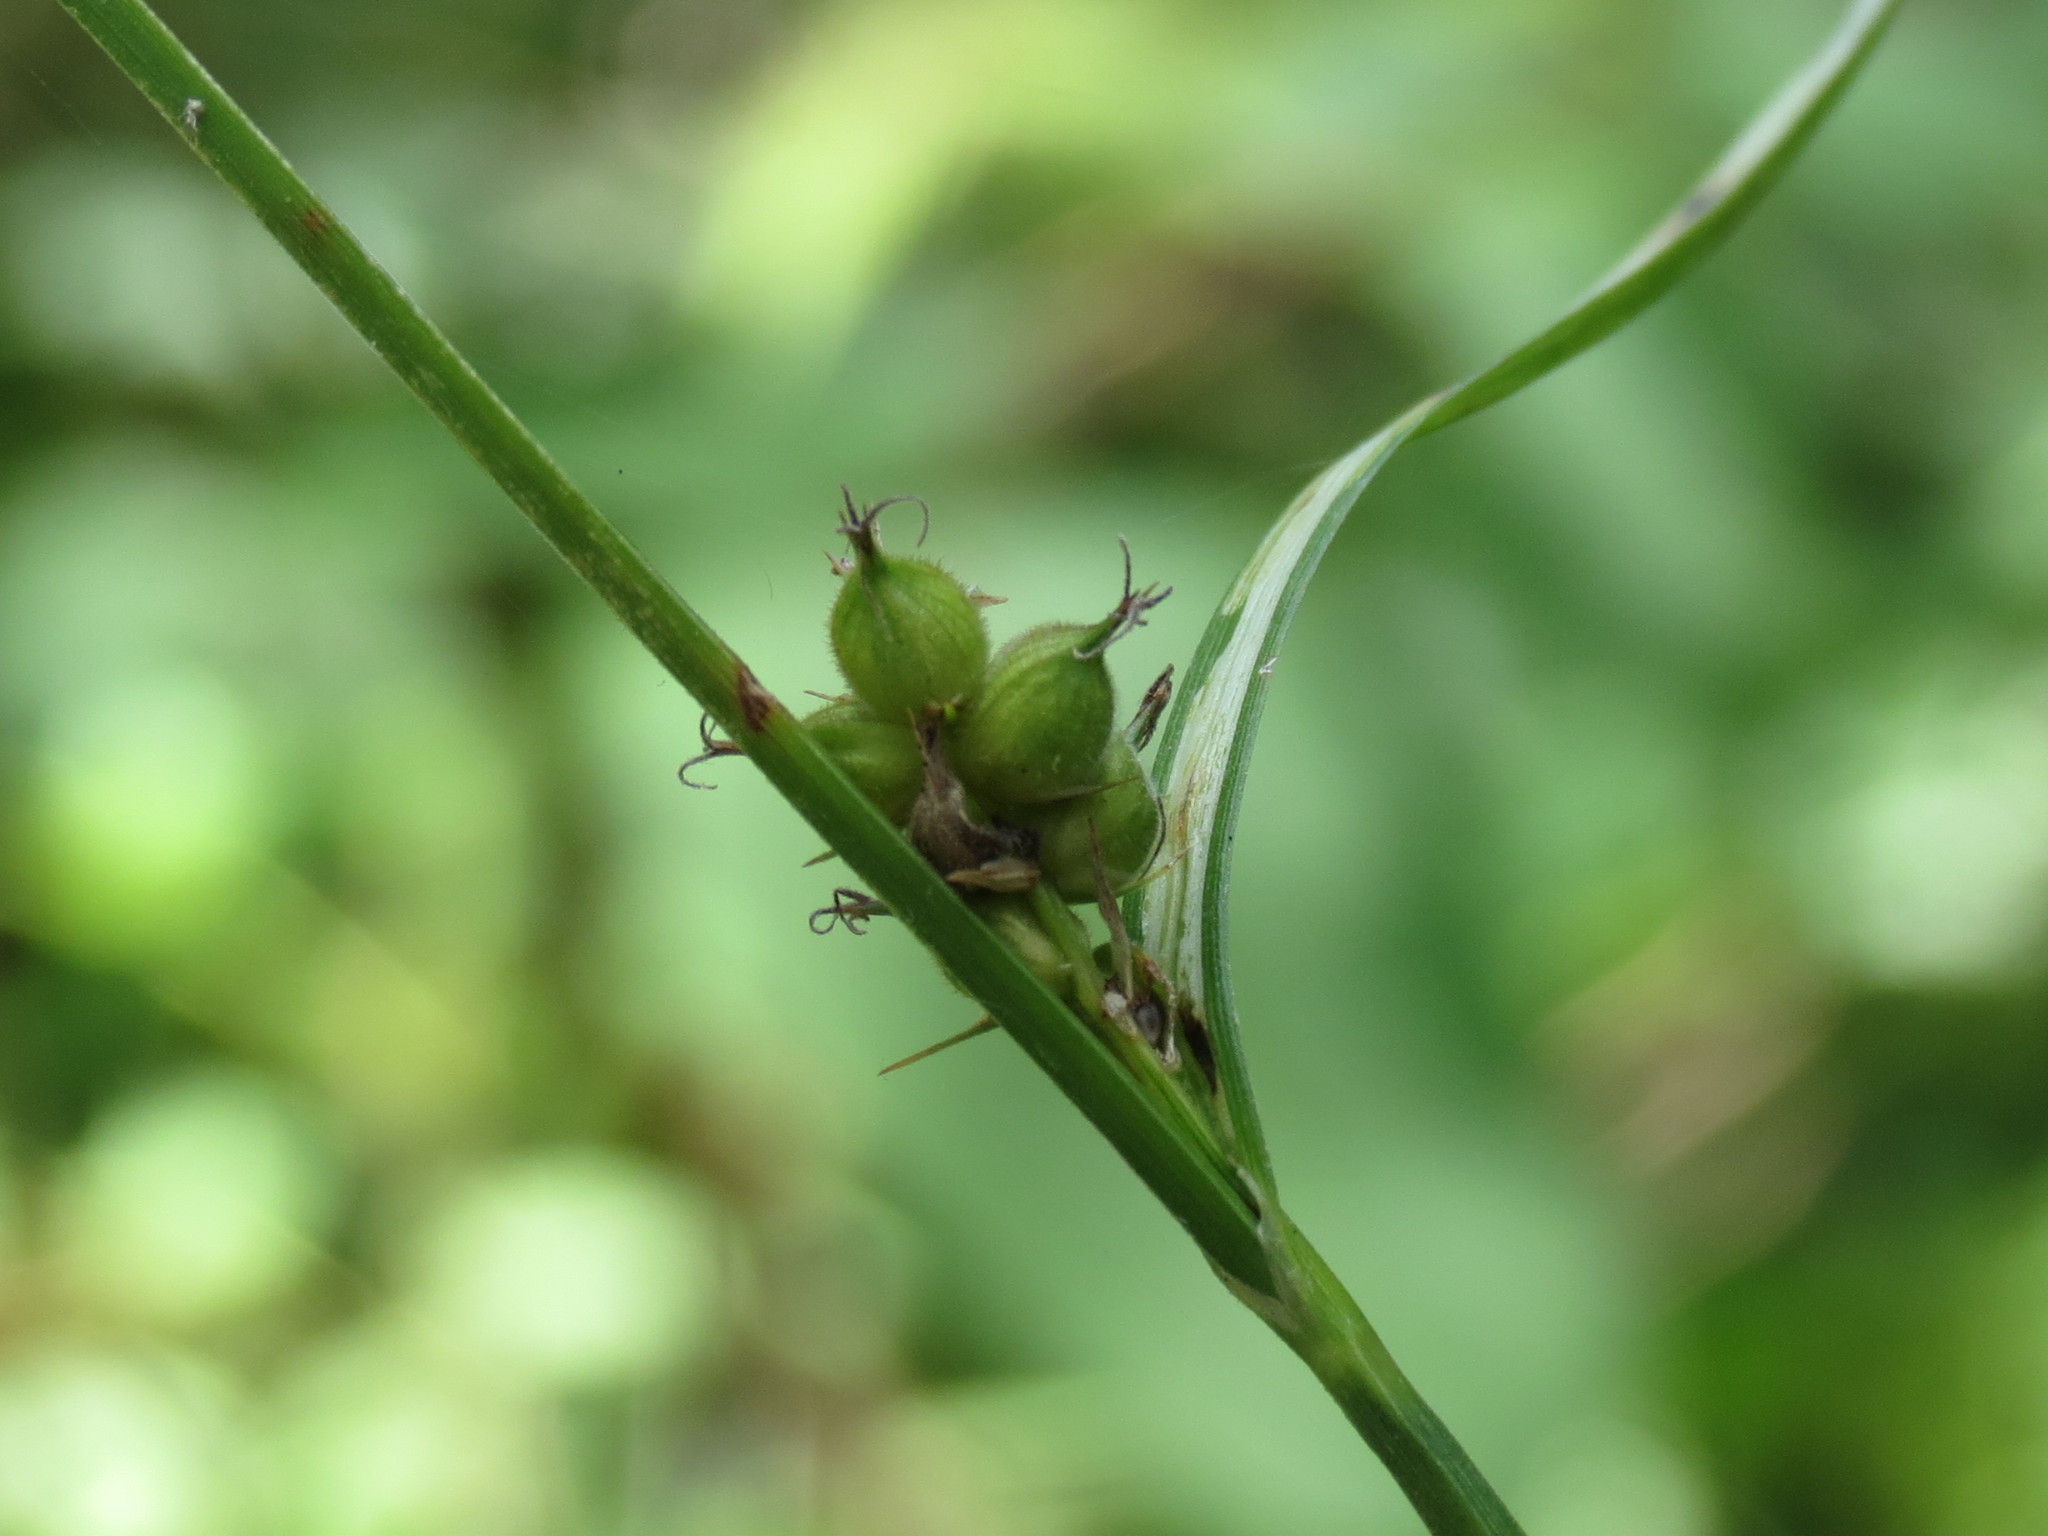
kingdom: Plantae
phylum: Tracheophyta
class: Liliopsida
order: Poales
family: Cyperaceae
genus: Carex
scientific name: Carex houghtoniana
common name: Houghton's sedge
